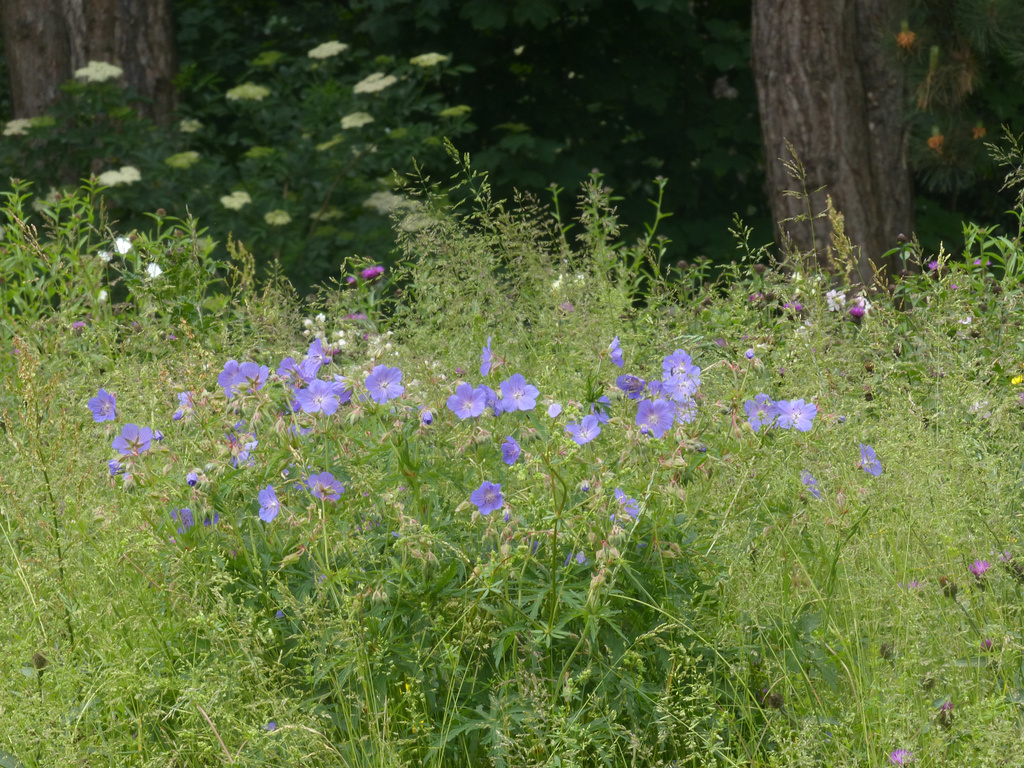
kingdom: Plantae
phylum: Tracheophyta
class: Magnoliopsida
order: Geraniales
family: Geraniaceae
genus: Geranium
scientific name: Geranium pratense
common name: Meadow crane's-bill
